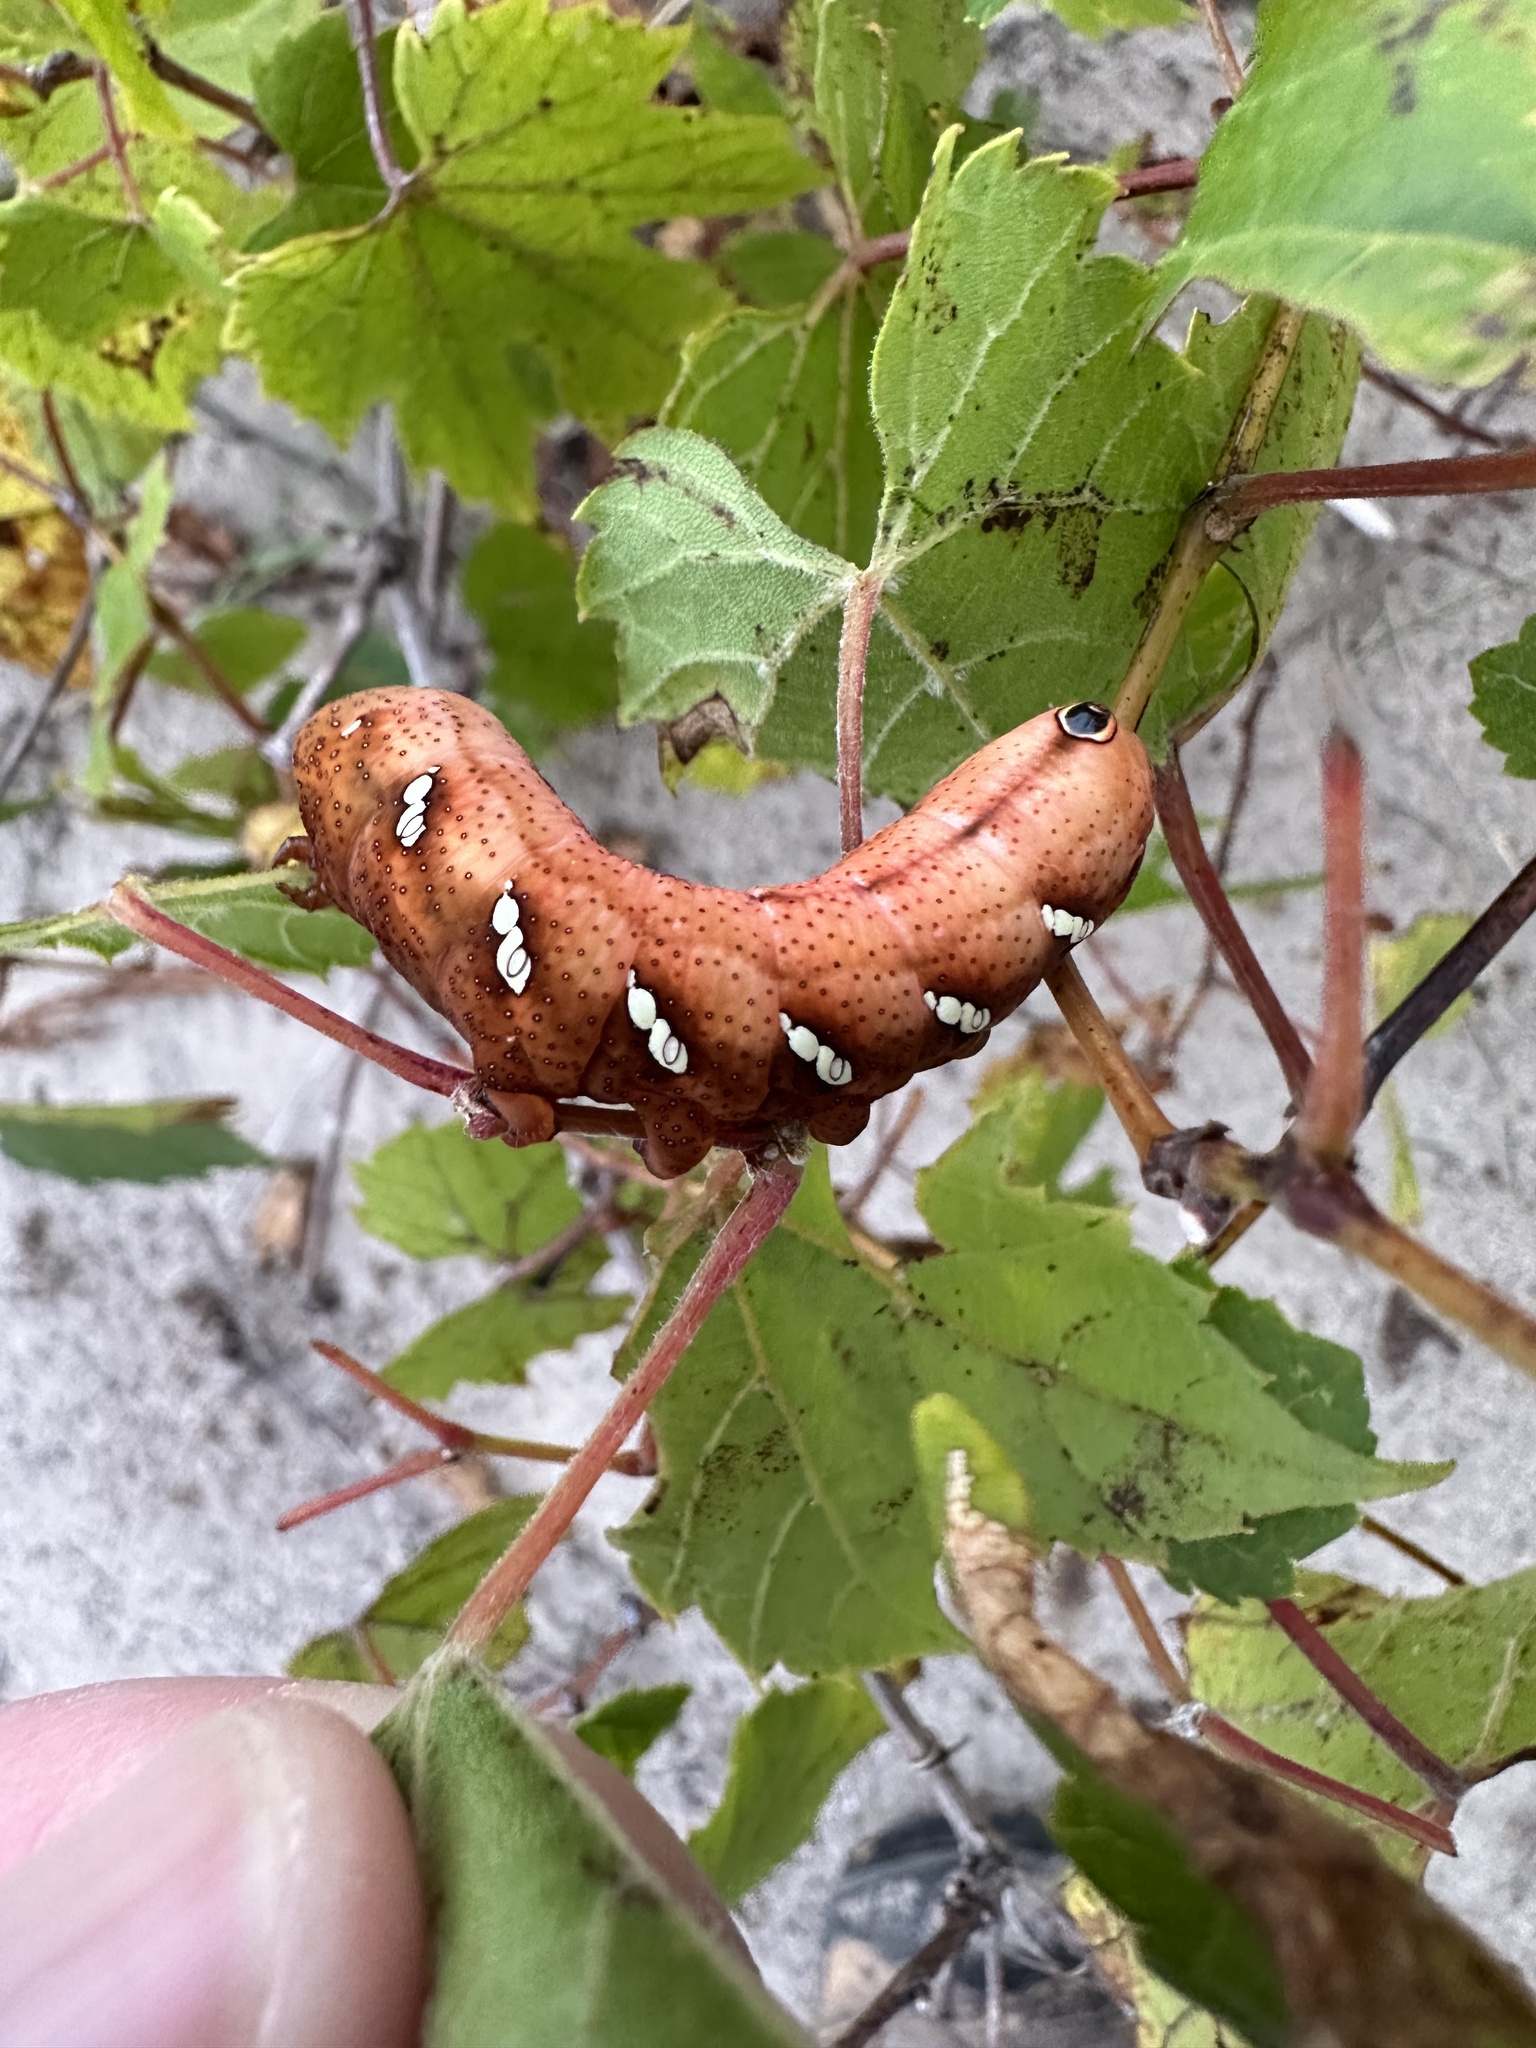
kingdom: Animalia
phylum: Arthropoda
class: Insecta
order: Lepidoptera
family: Sphingidae
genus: Eumorpha
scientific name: Eumorpha achemon
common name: Achemon sphinx
